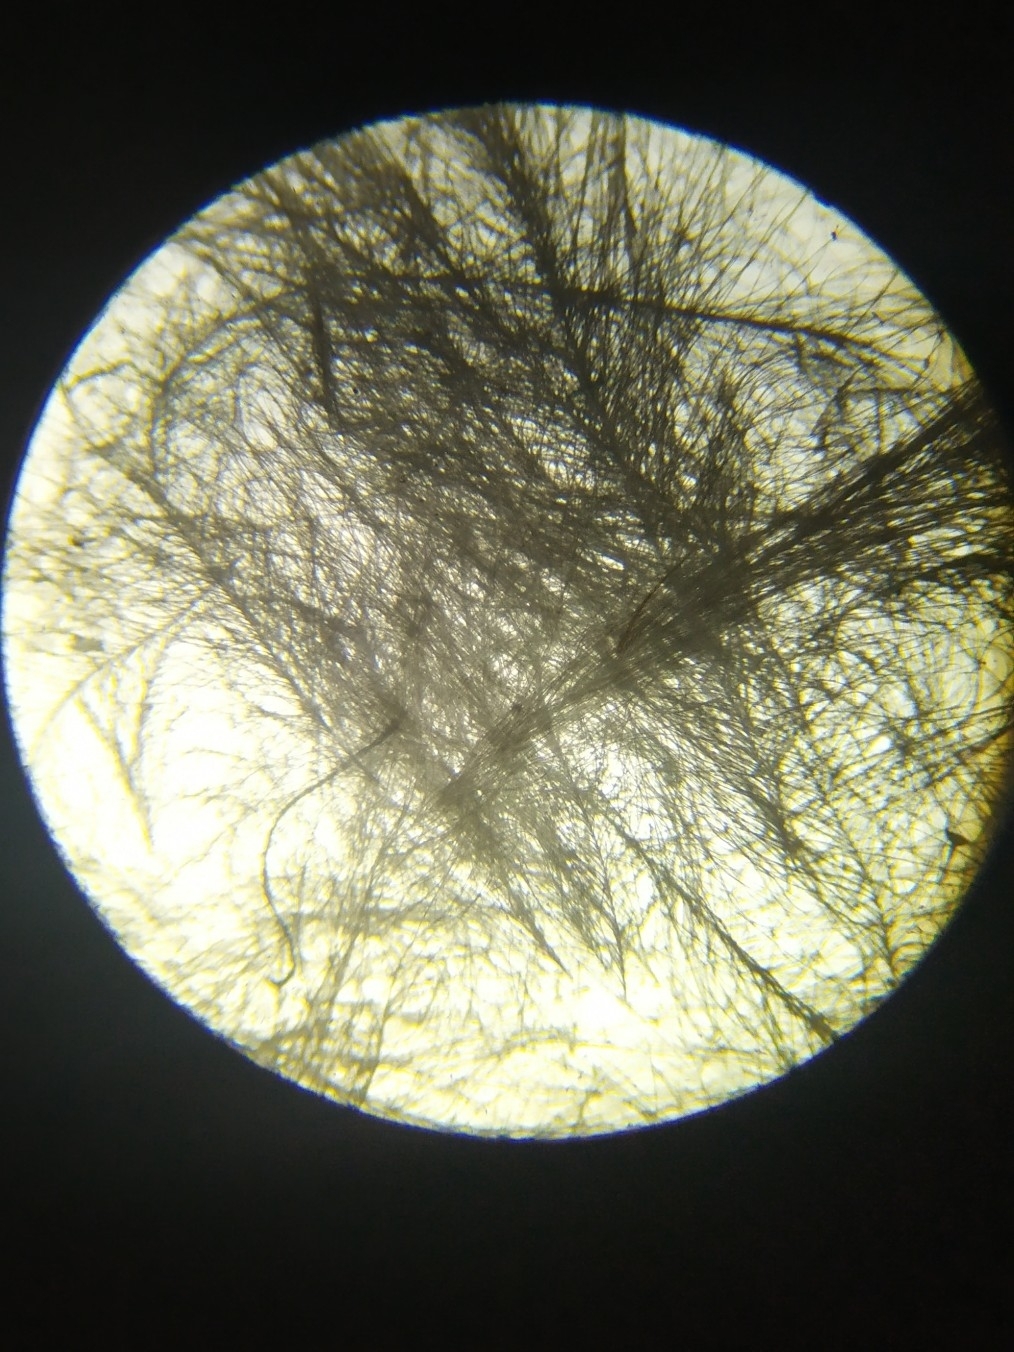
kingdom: Animalia
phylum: Chordata
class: Aves
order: Columbiformes
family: Columbidae
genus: Columba
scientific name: Columba livia
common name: Rock pigeon
